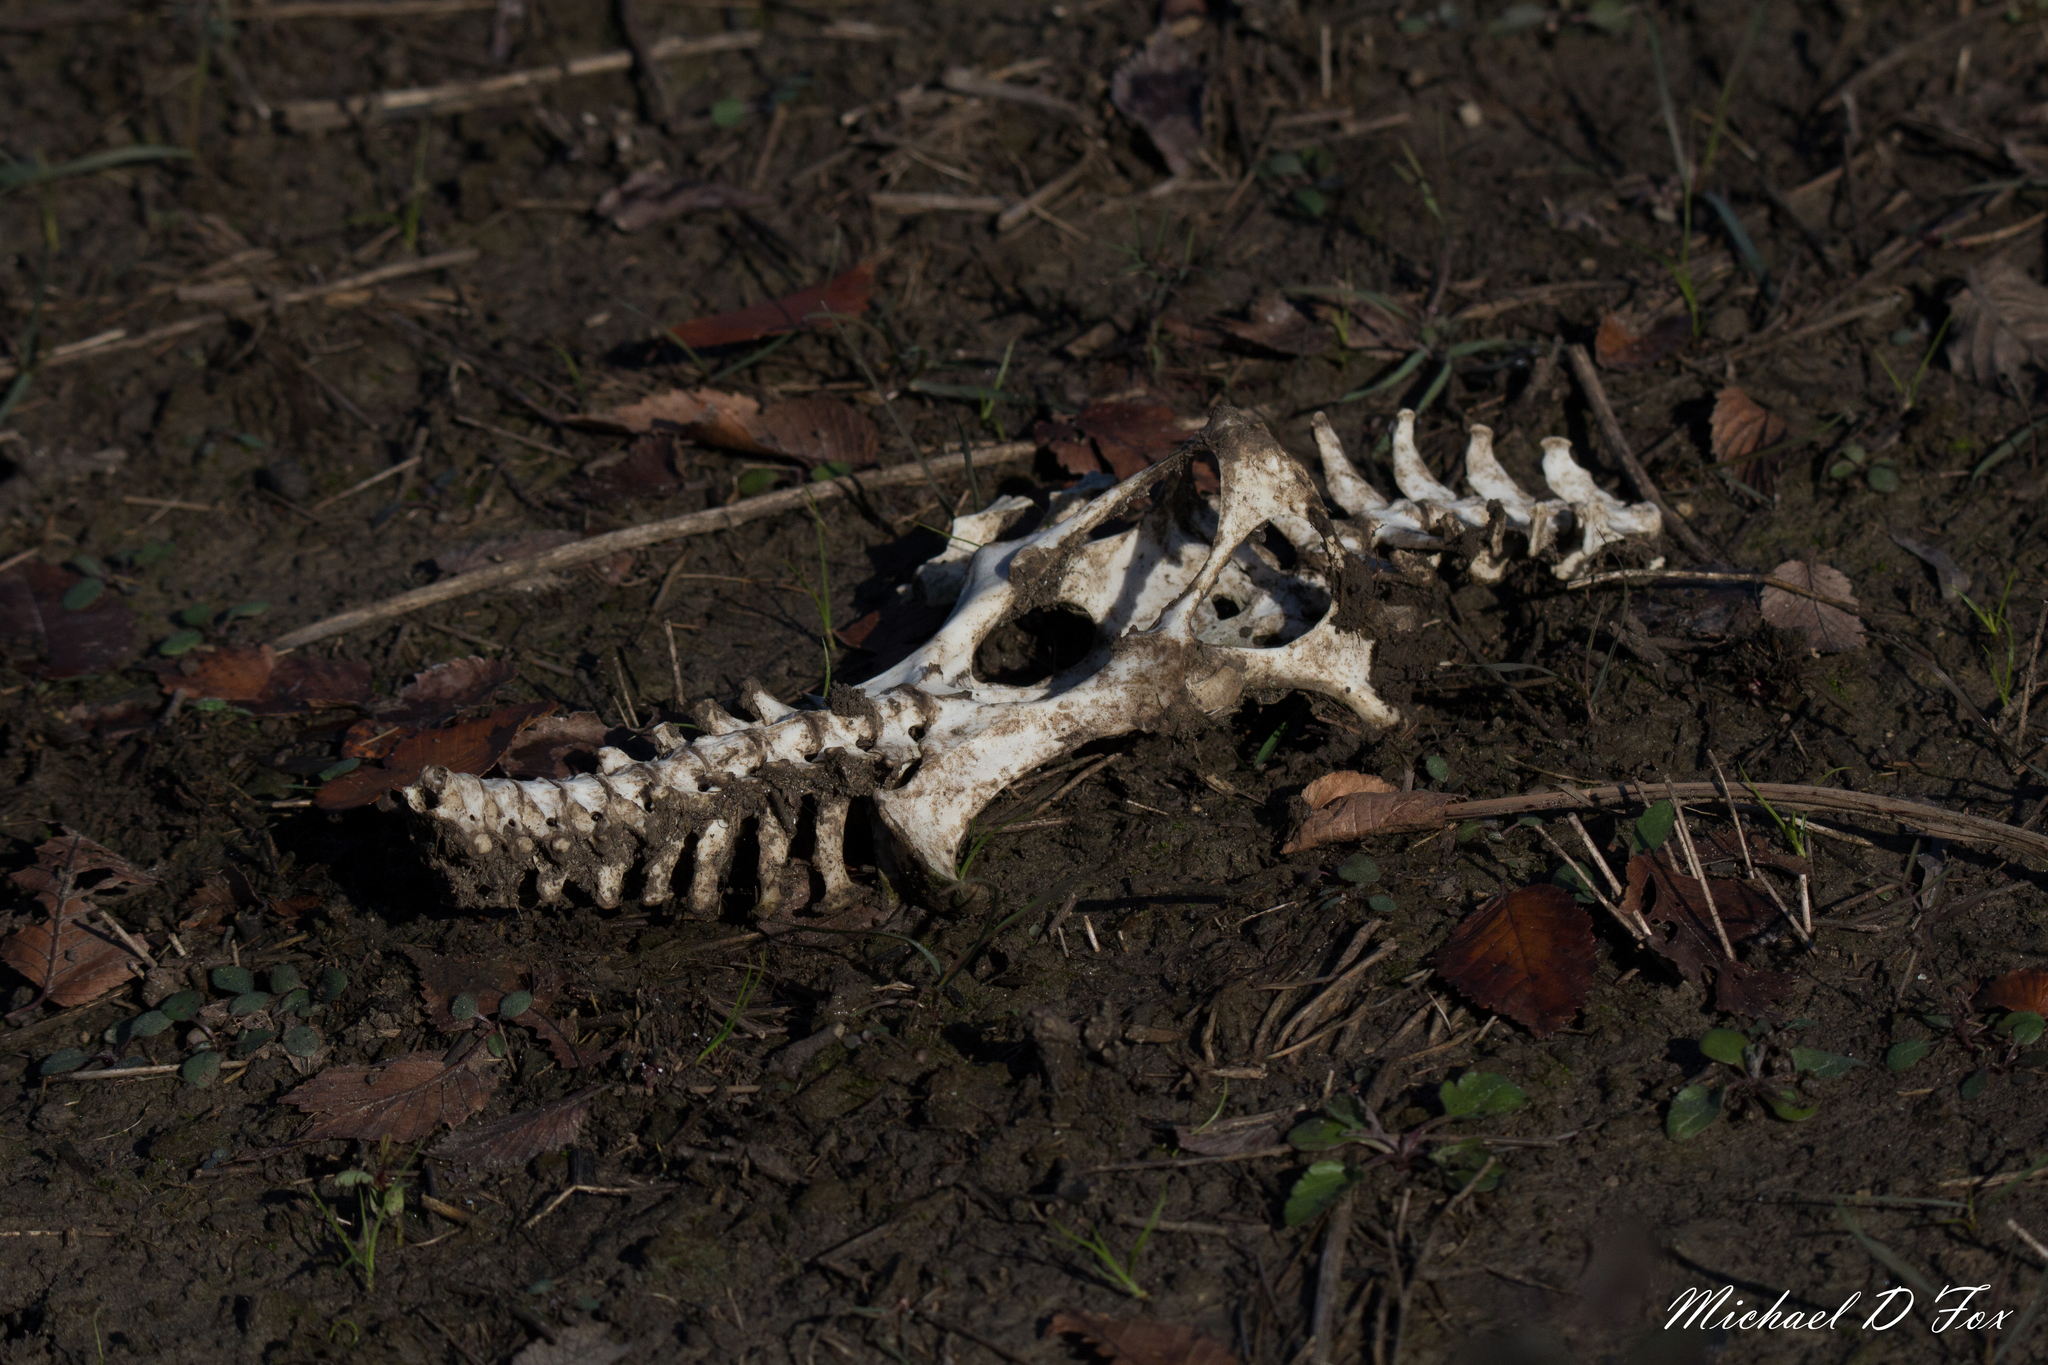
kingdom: Animalia
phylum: Chordata
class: Mammalia
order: Cingulata
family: Dasypodidae
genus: Dasypus
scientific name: Dasypus novemcinctus
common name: Nine-banded armadillo
